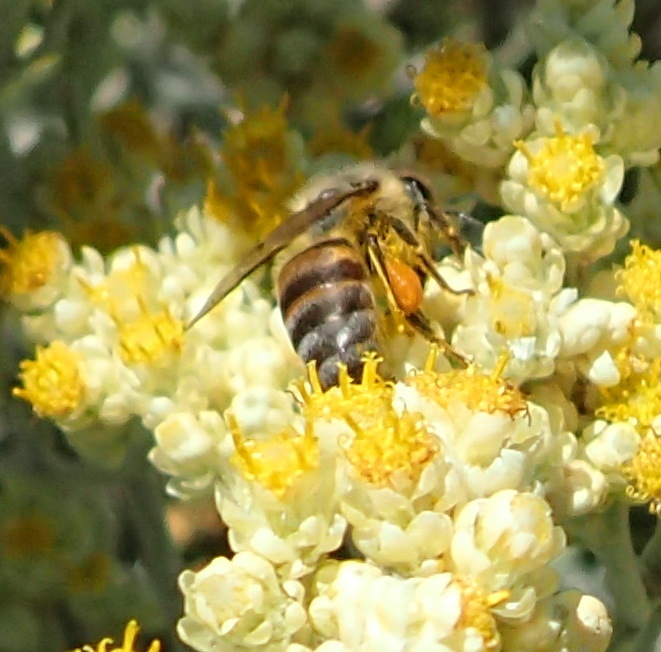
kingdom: Animalia
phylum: Arthropoda
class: Insecta
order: Hymenoptera
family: Apidae
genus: Apis
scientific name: Apis mellifera
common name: Honey bee
